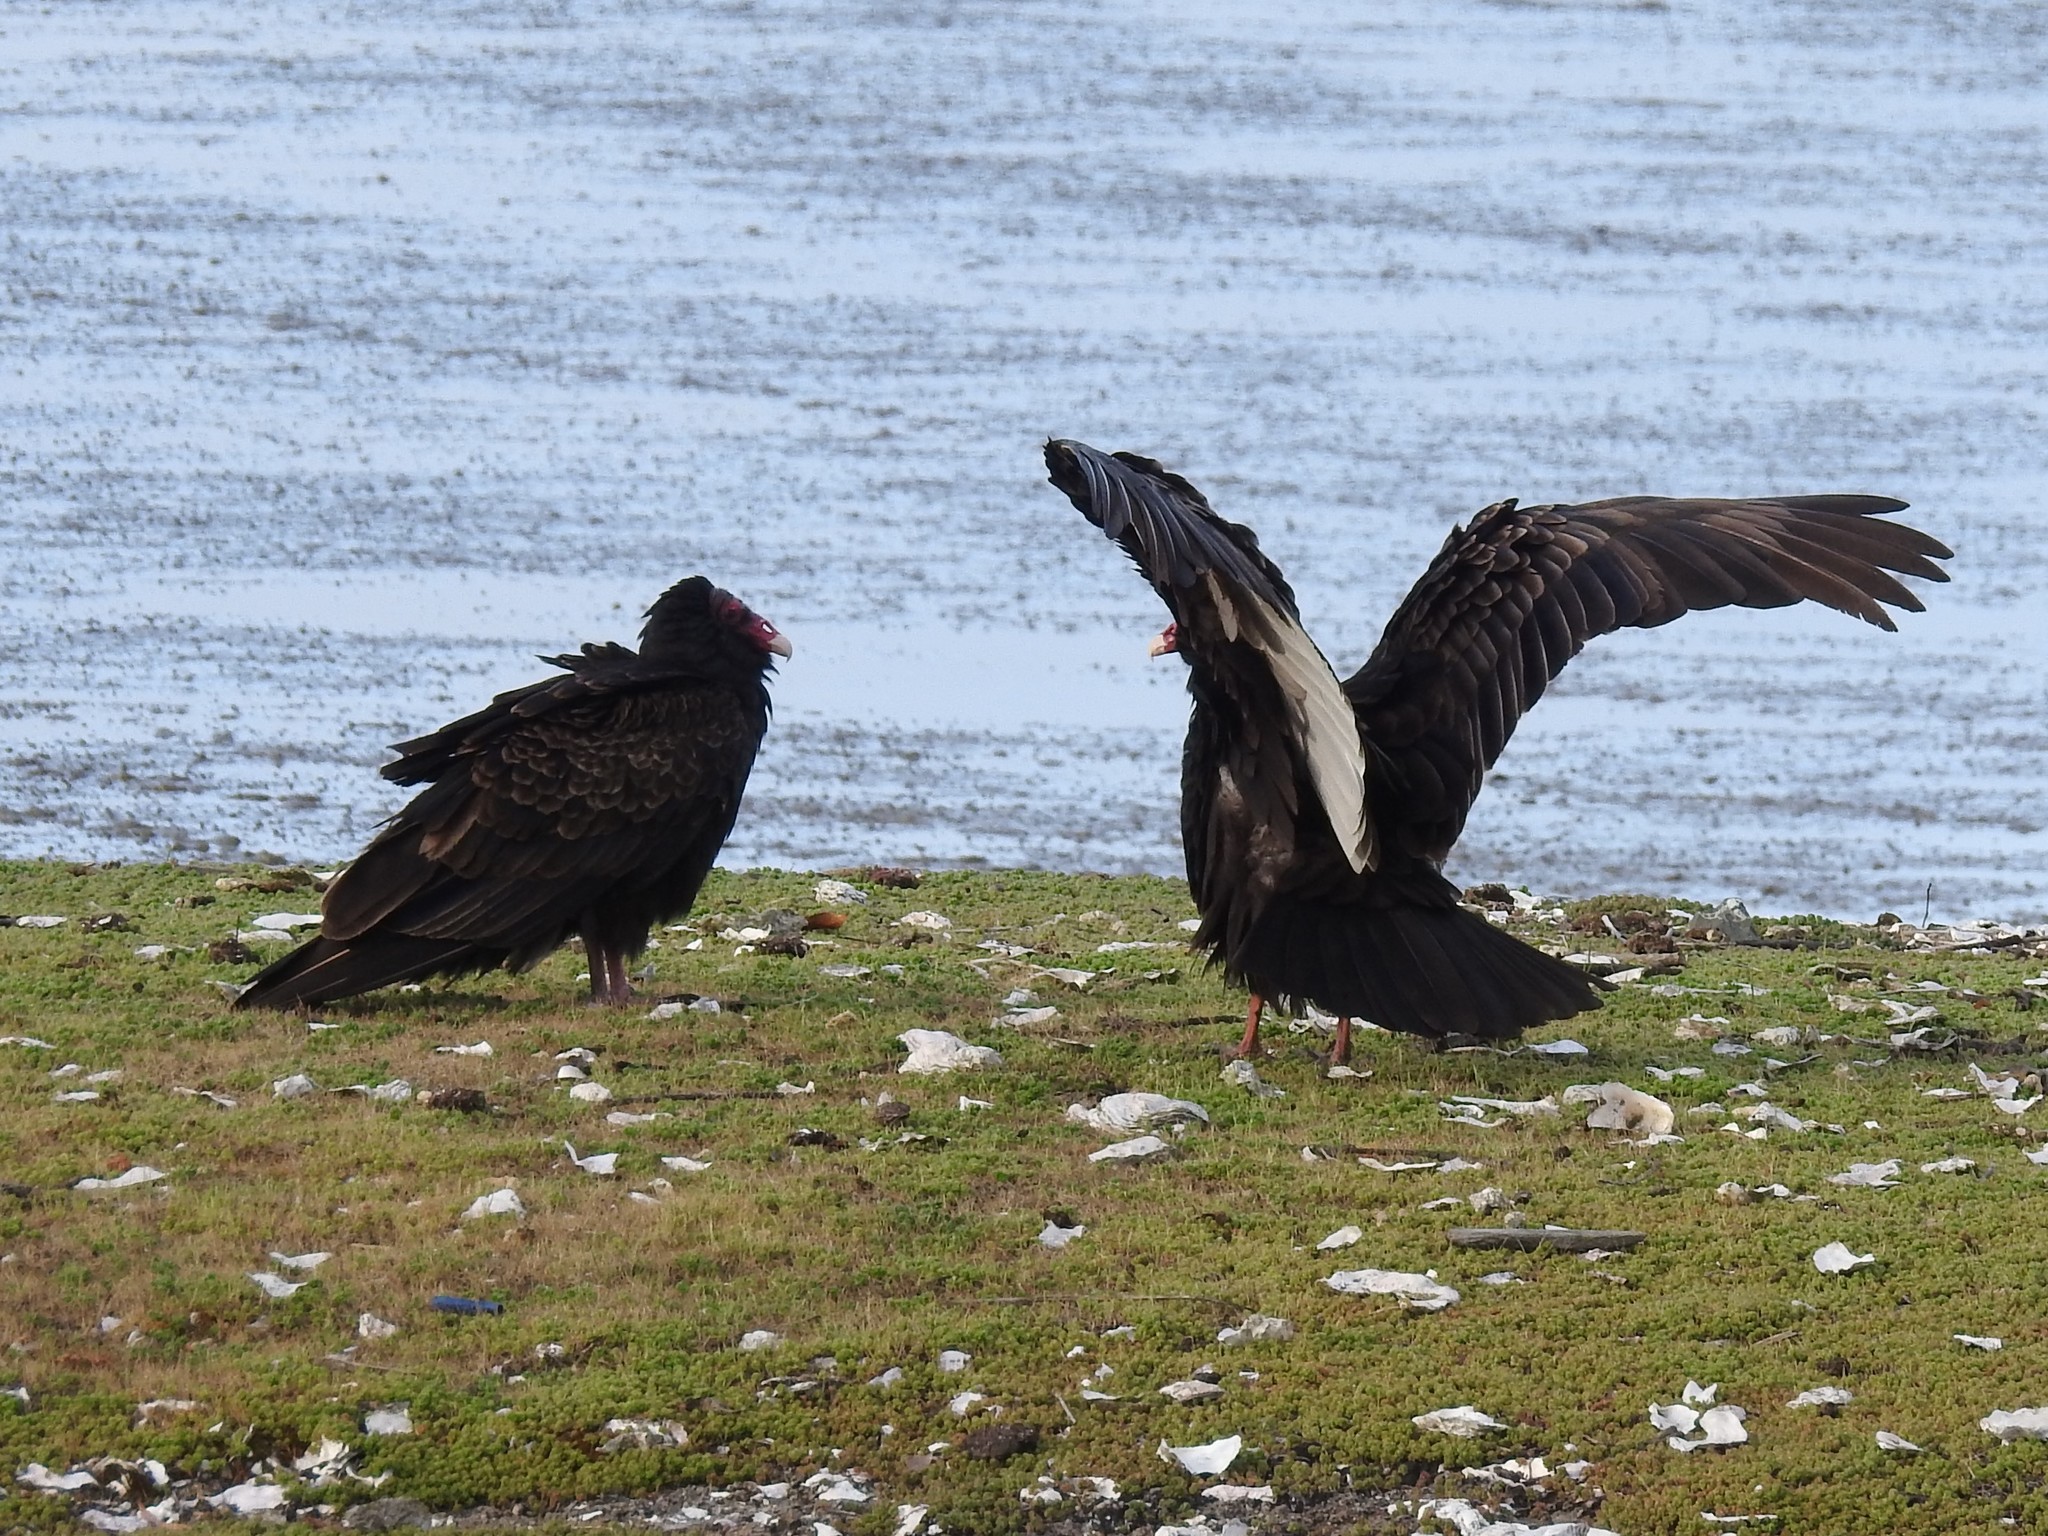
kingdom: Animalia
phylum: Chordata
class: Aves
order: Accipitriformes
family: Cathartidae
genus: Cathartes
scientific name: Cathartes aura
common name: Turkey vulture
